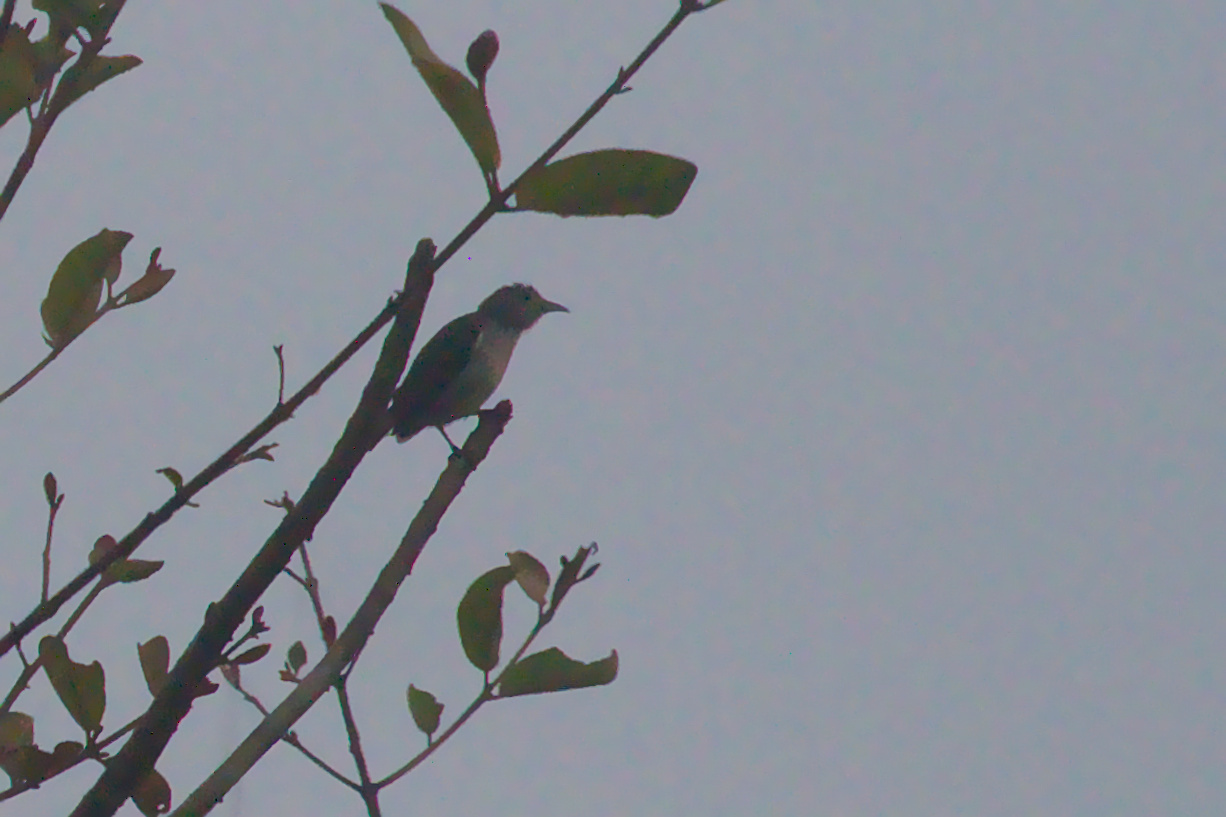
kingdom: Animalia
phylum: Chordata
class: Aves
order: Passeriformes
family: Dicaeidae
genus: Dicaeum
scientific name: Dicaeum concolor
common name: Nilgiri flowerpecker
